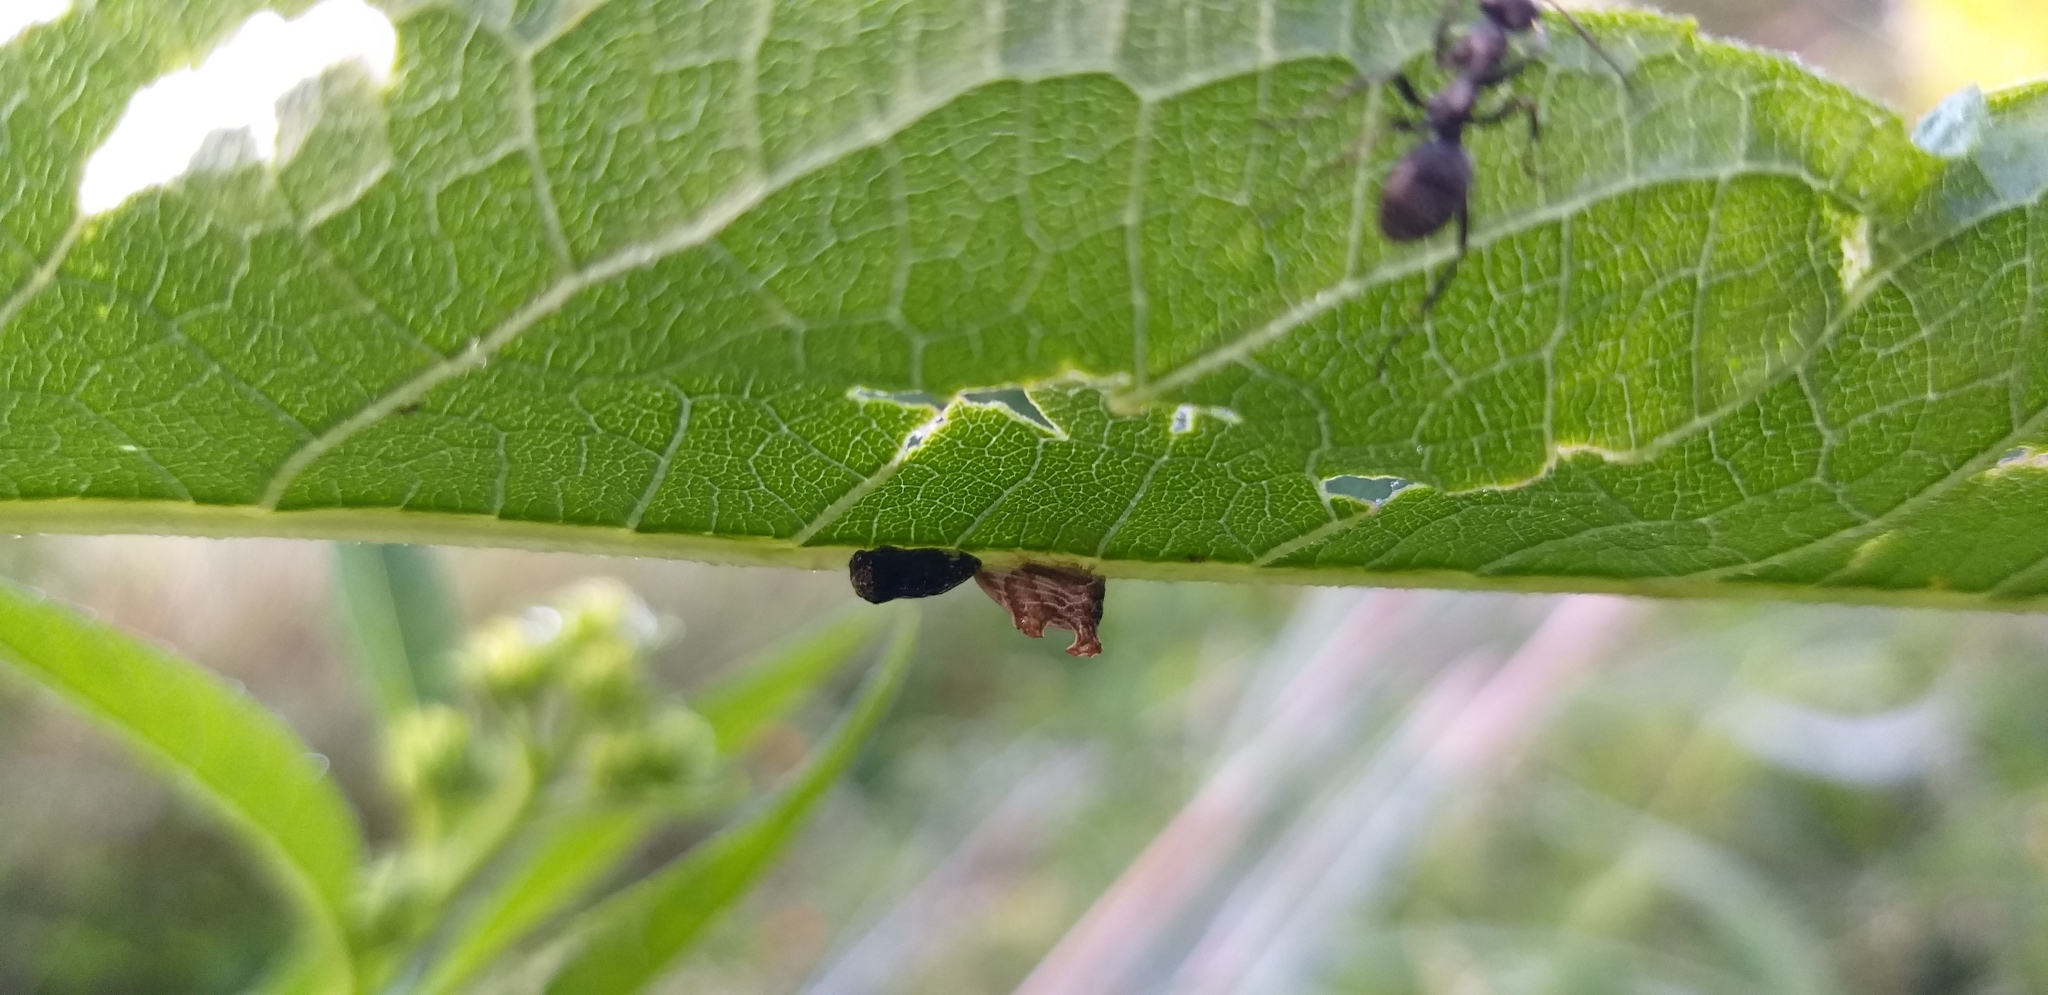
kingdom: Animalia
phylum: Arthropoda
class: Insecta
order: Hemiptera
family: Membracidae
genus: Entylia
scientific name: Entylia carinata
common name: Keeled treehopper
